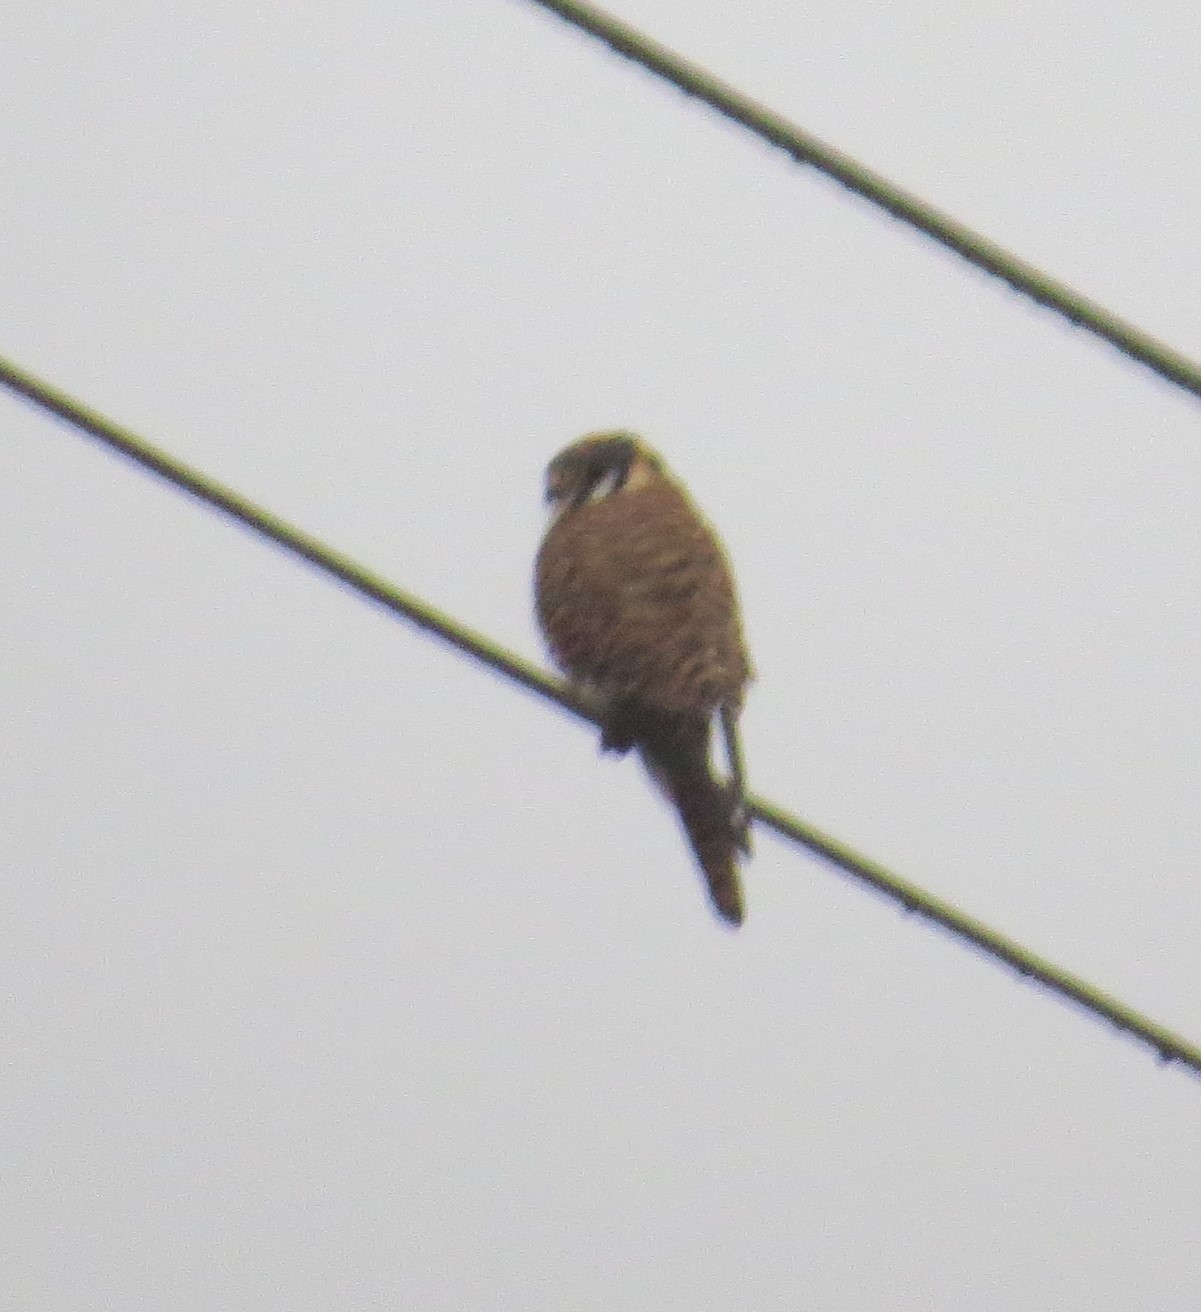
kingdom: Animalia
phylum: Chordata
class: Aves
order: Falconiformes
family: Falconidae
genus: Falco
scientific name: Falco sparverius
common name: American kestrel
